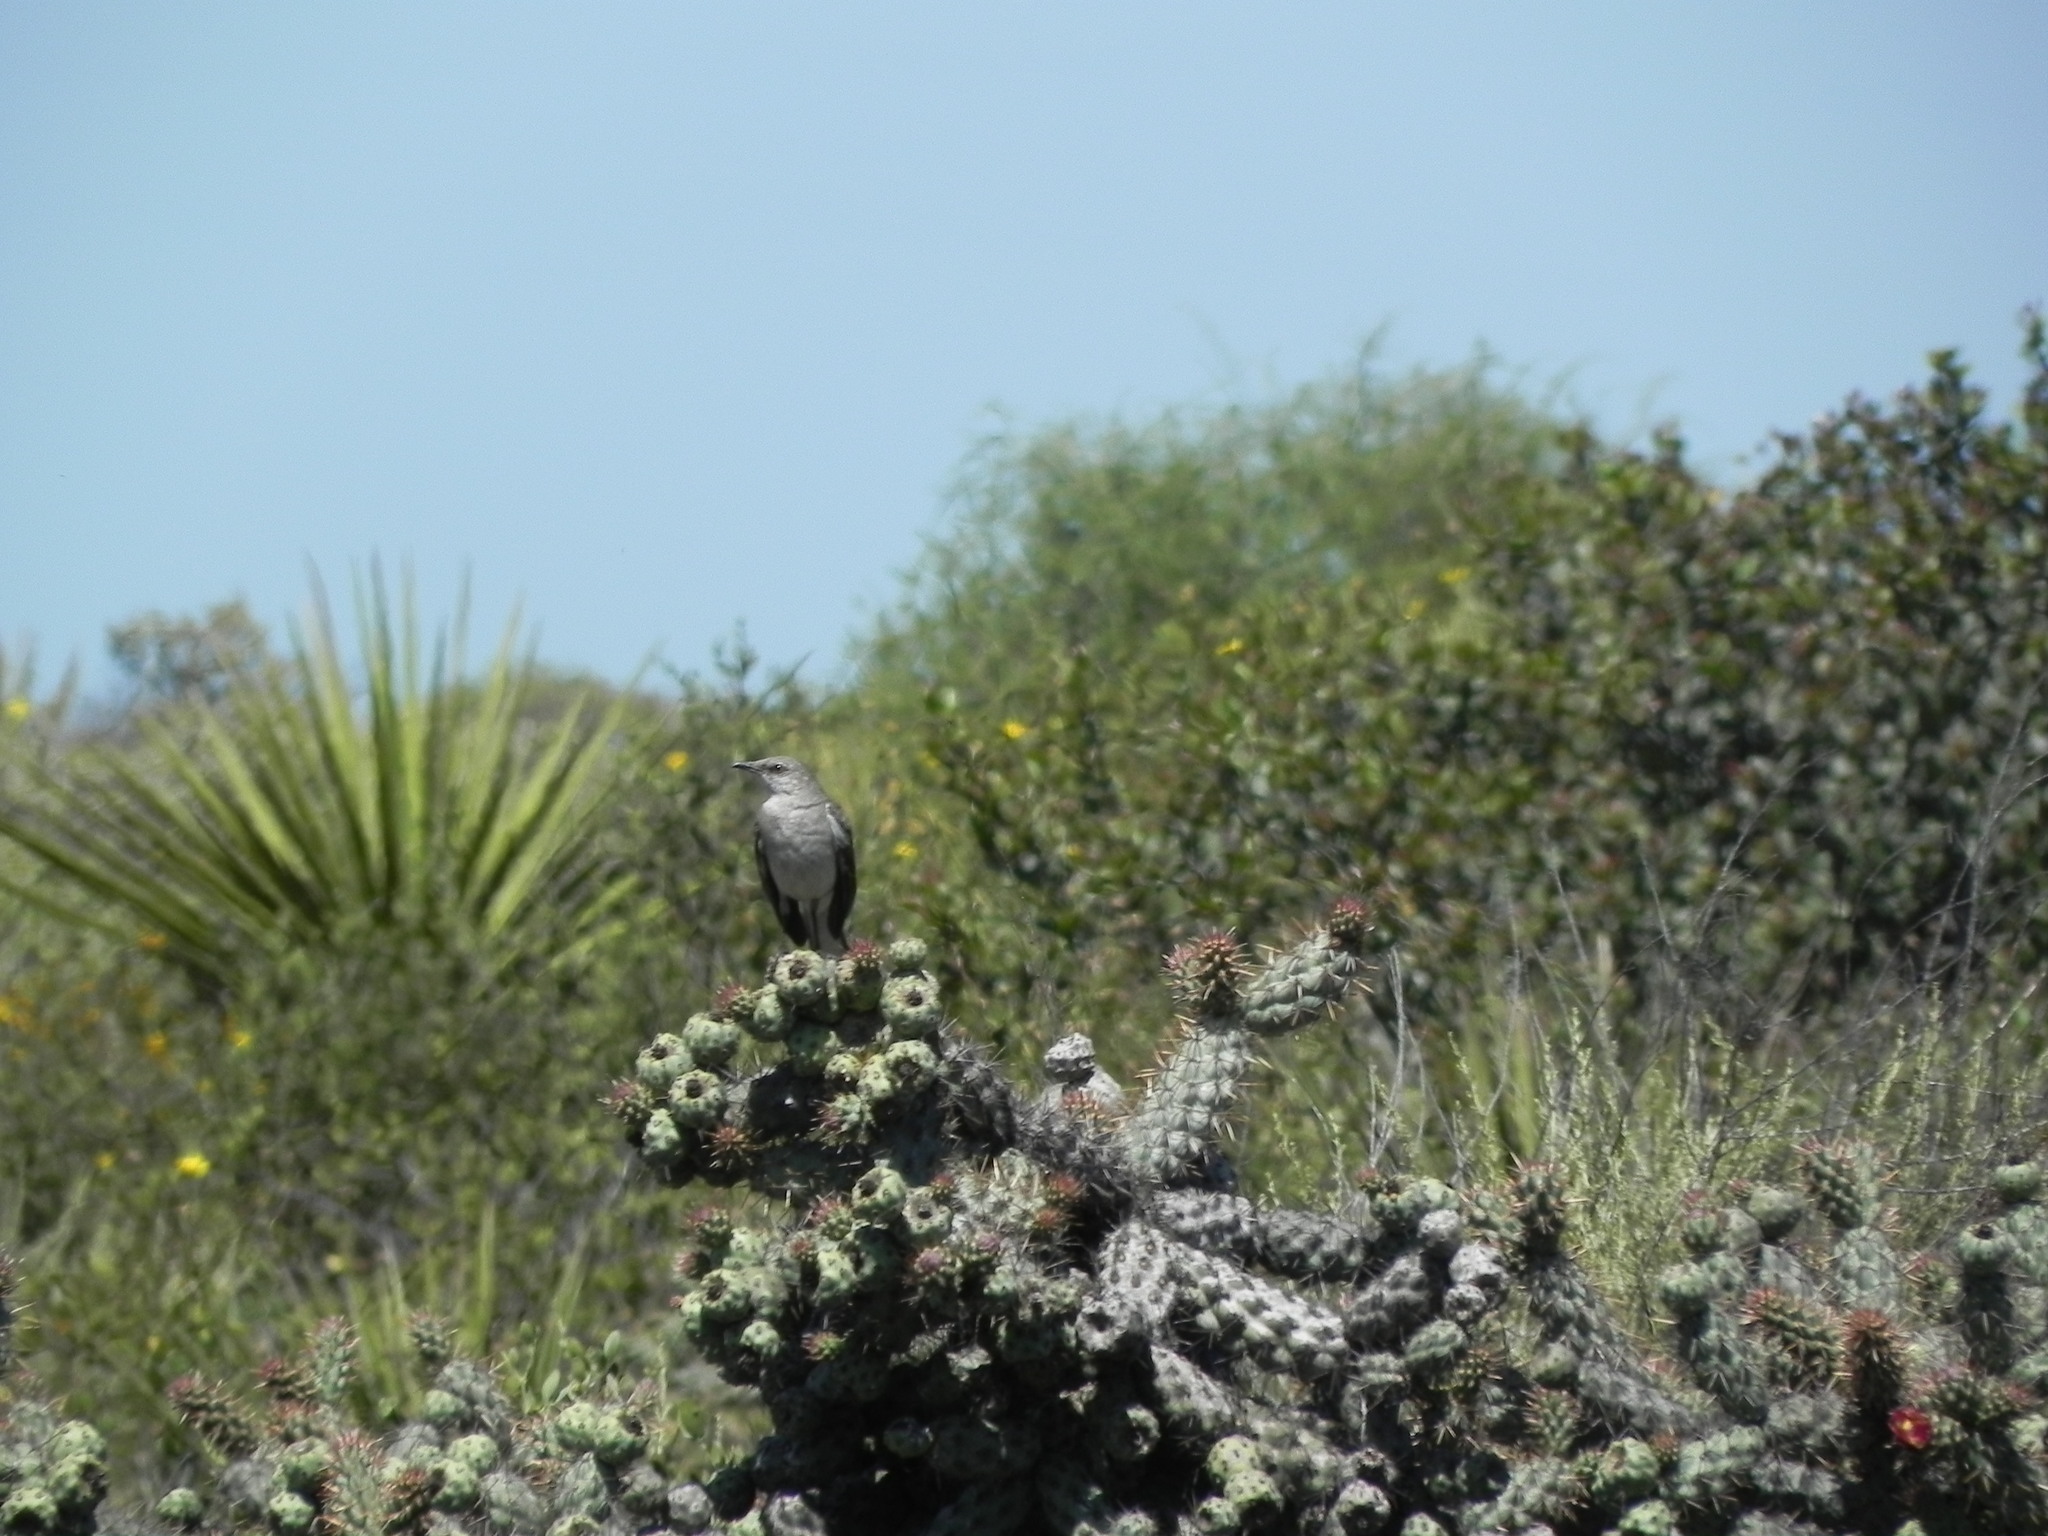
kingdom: Animalia
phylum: Chordata
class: Aves
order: Passeriformes
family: Mimidae
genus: Mimus
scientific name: Mimus polyglottos
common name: Northern mockingbird
